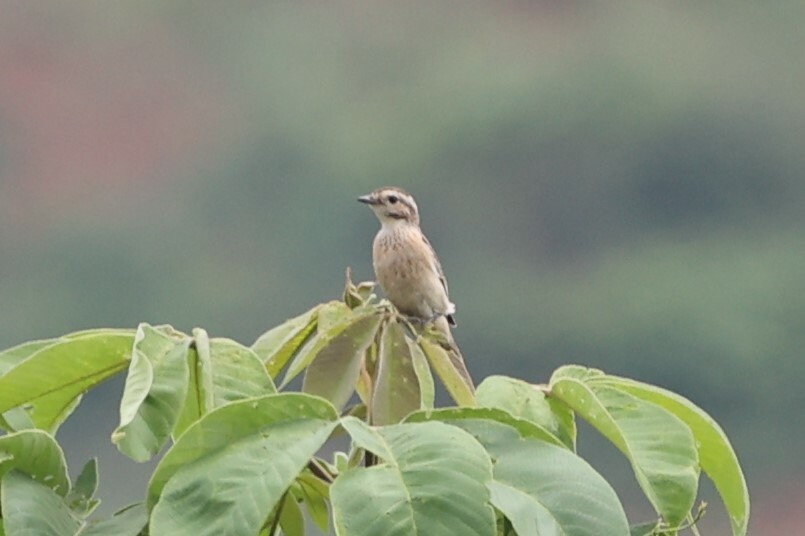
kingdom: Animalia
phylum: Chordata
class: Aves
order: Passeriformes
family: Muscicapidae
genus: Saxicola
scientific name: Saxicola rubetra
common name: Whinchat
